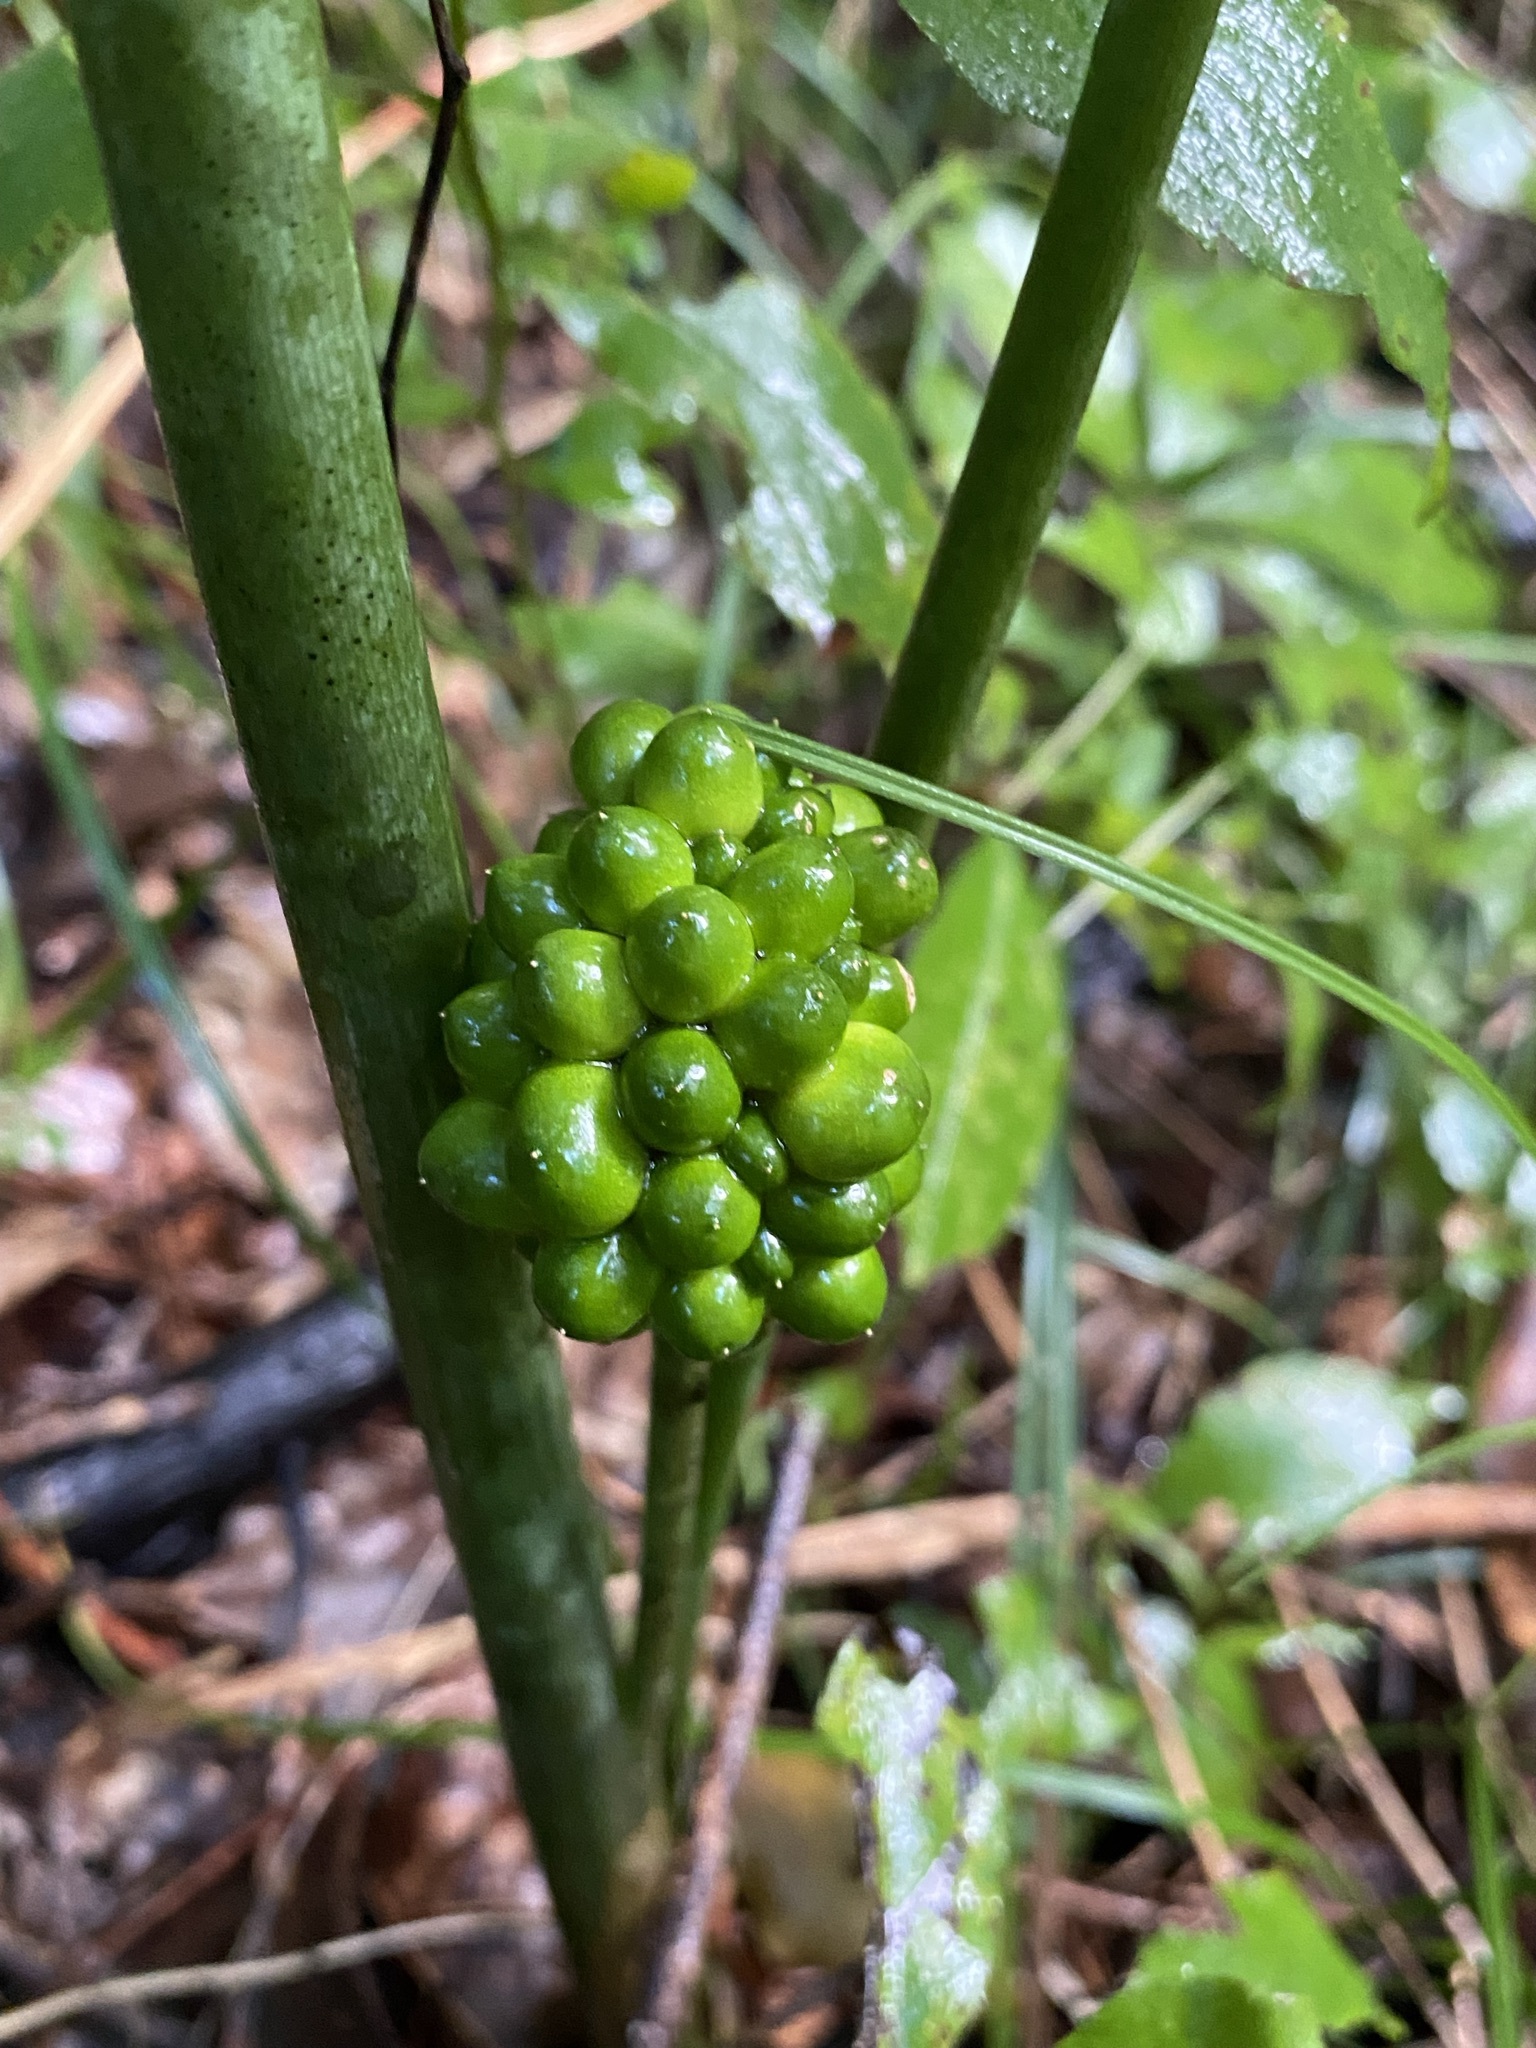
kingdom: Plantae
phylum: Tracheophyta
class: Liliopsida
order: Alismatales
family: Araceae
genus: Arisaema
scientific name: Arisaema dracontium
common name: Dragon-arum
